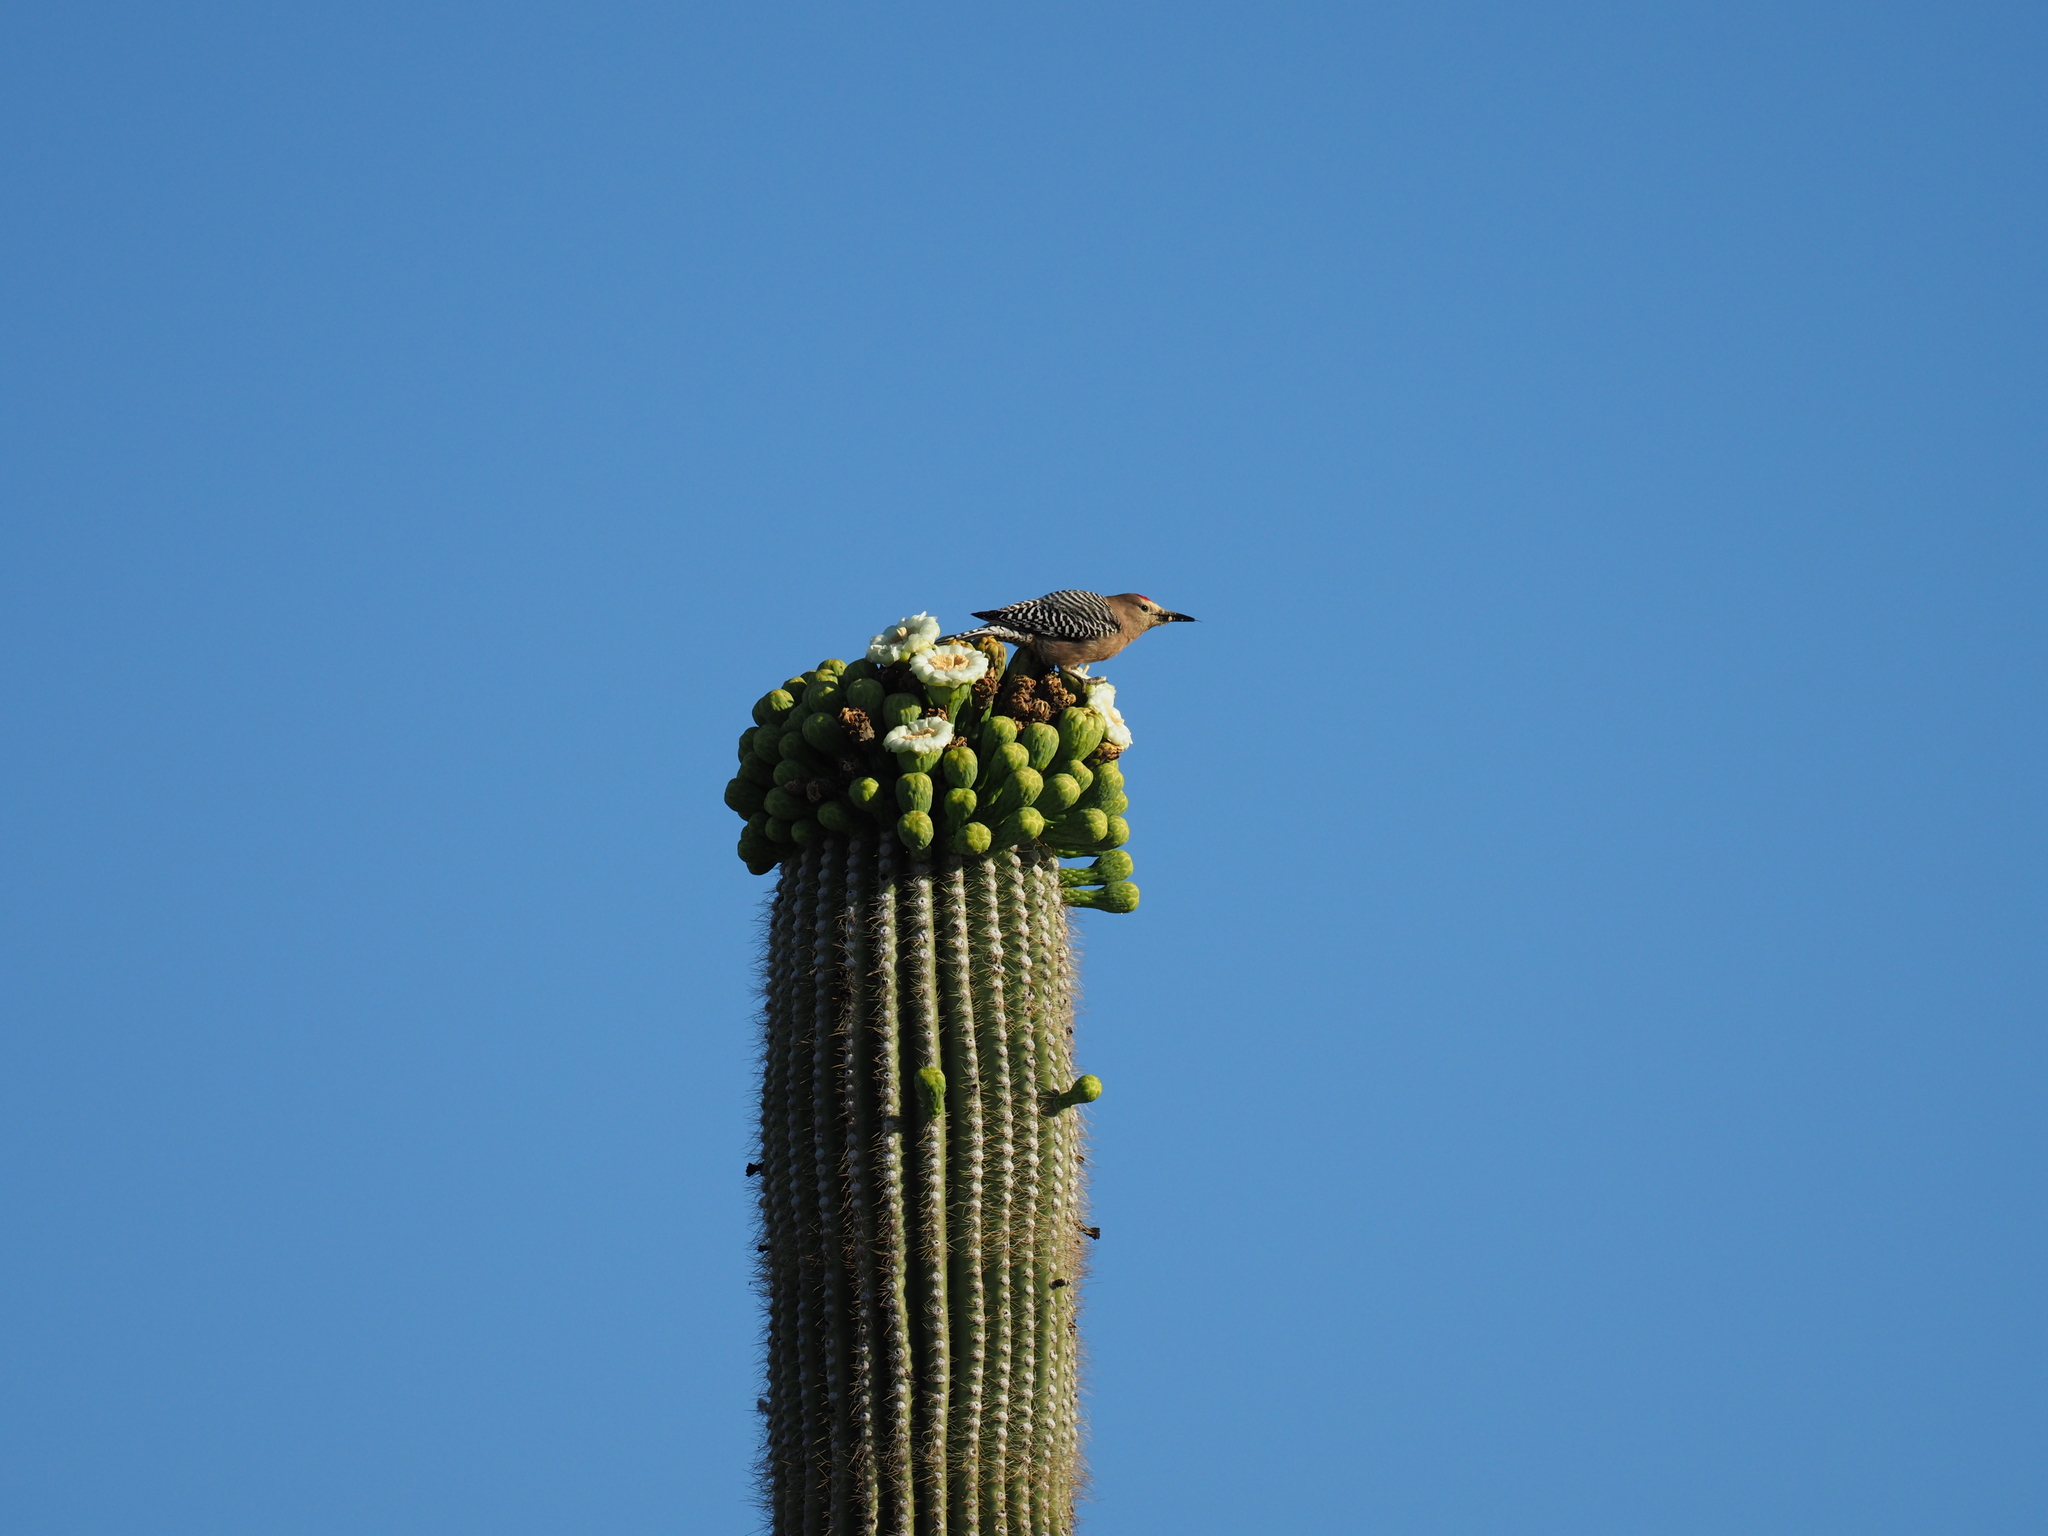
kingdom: Animalia
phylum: Chordata
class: Aves
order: Piciformes
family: Picidae
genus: Melanerpes
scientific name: Melanerpes uropygialis
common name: Gila woodpecker
